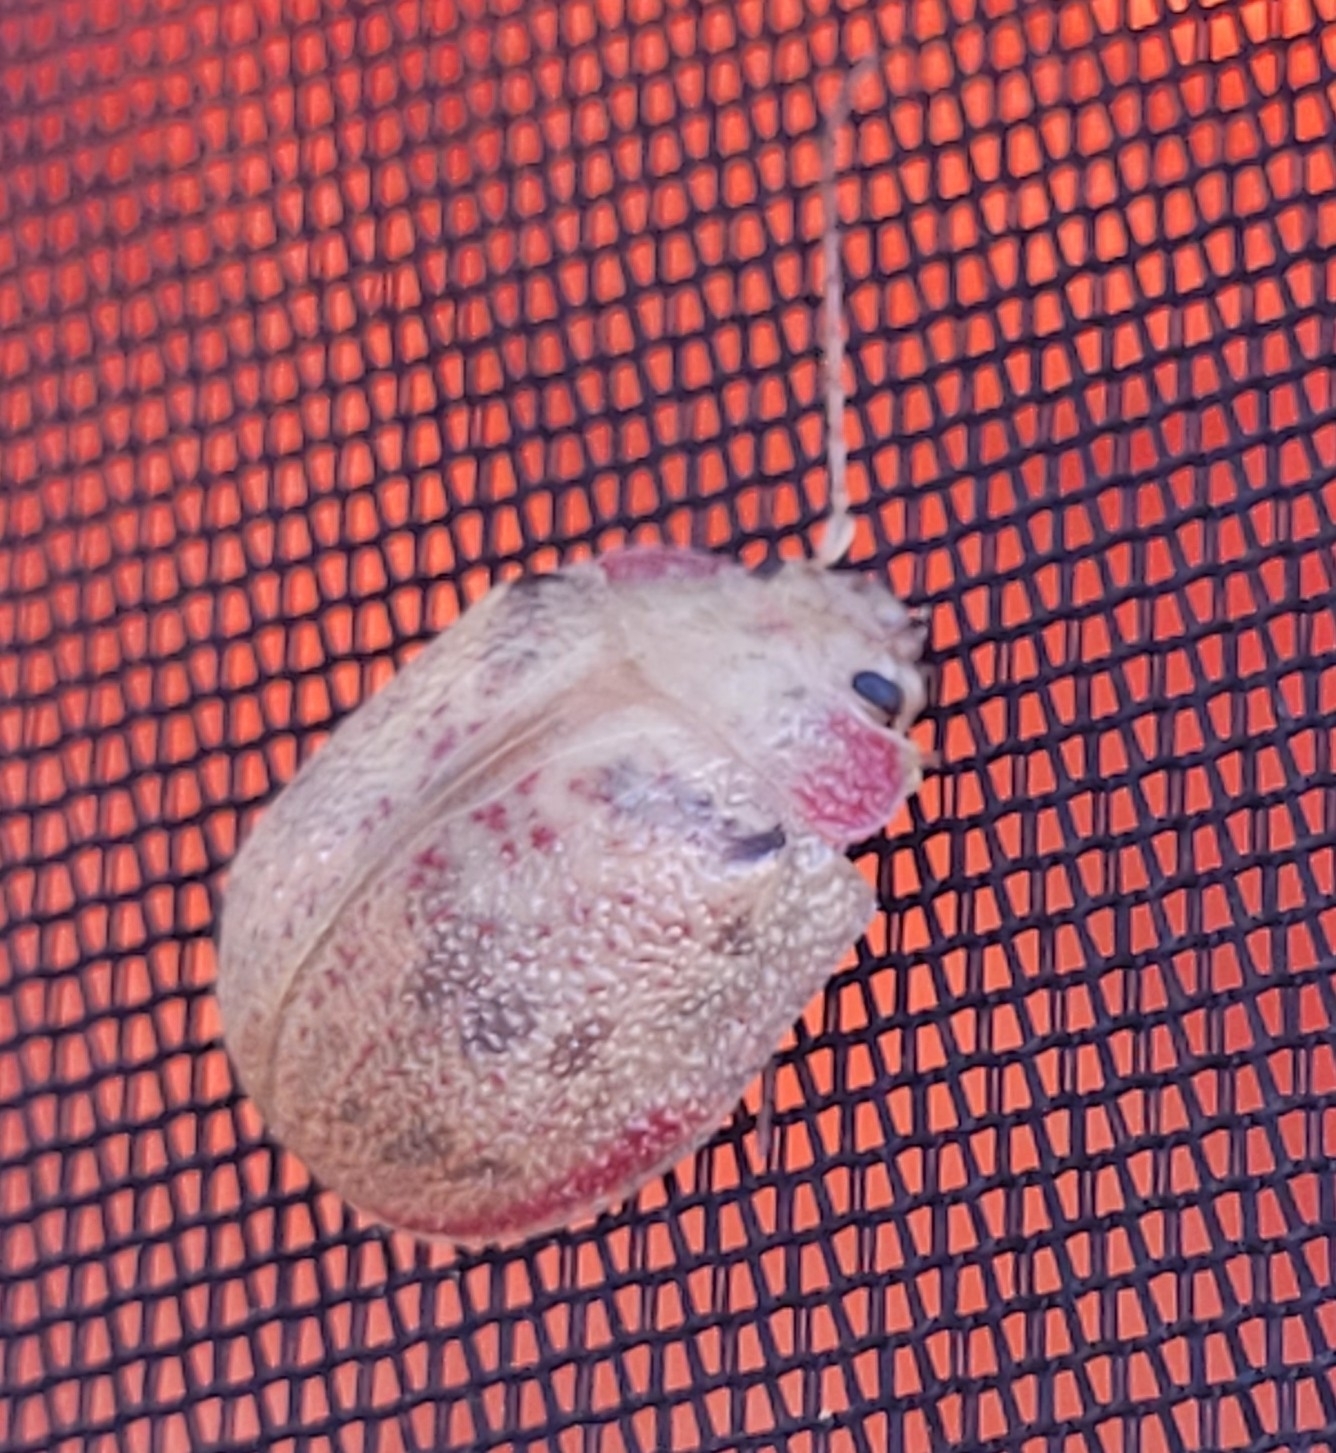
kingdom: Animalia
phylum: Arthropoda
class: Insecta
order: Coleoptera
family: Chrysomelidae
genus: Paropsis
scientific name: Paropsis charybdis
